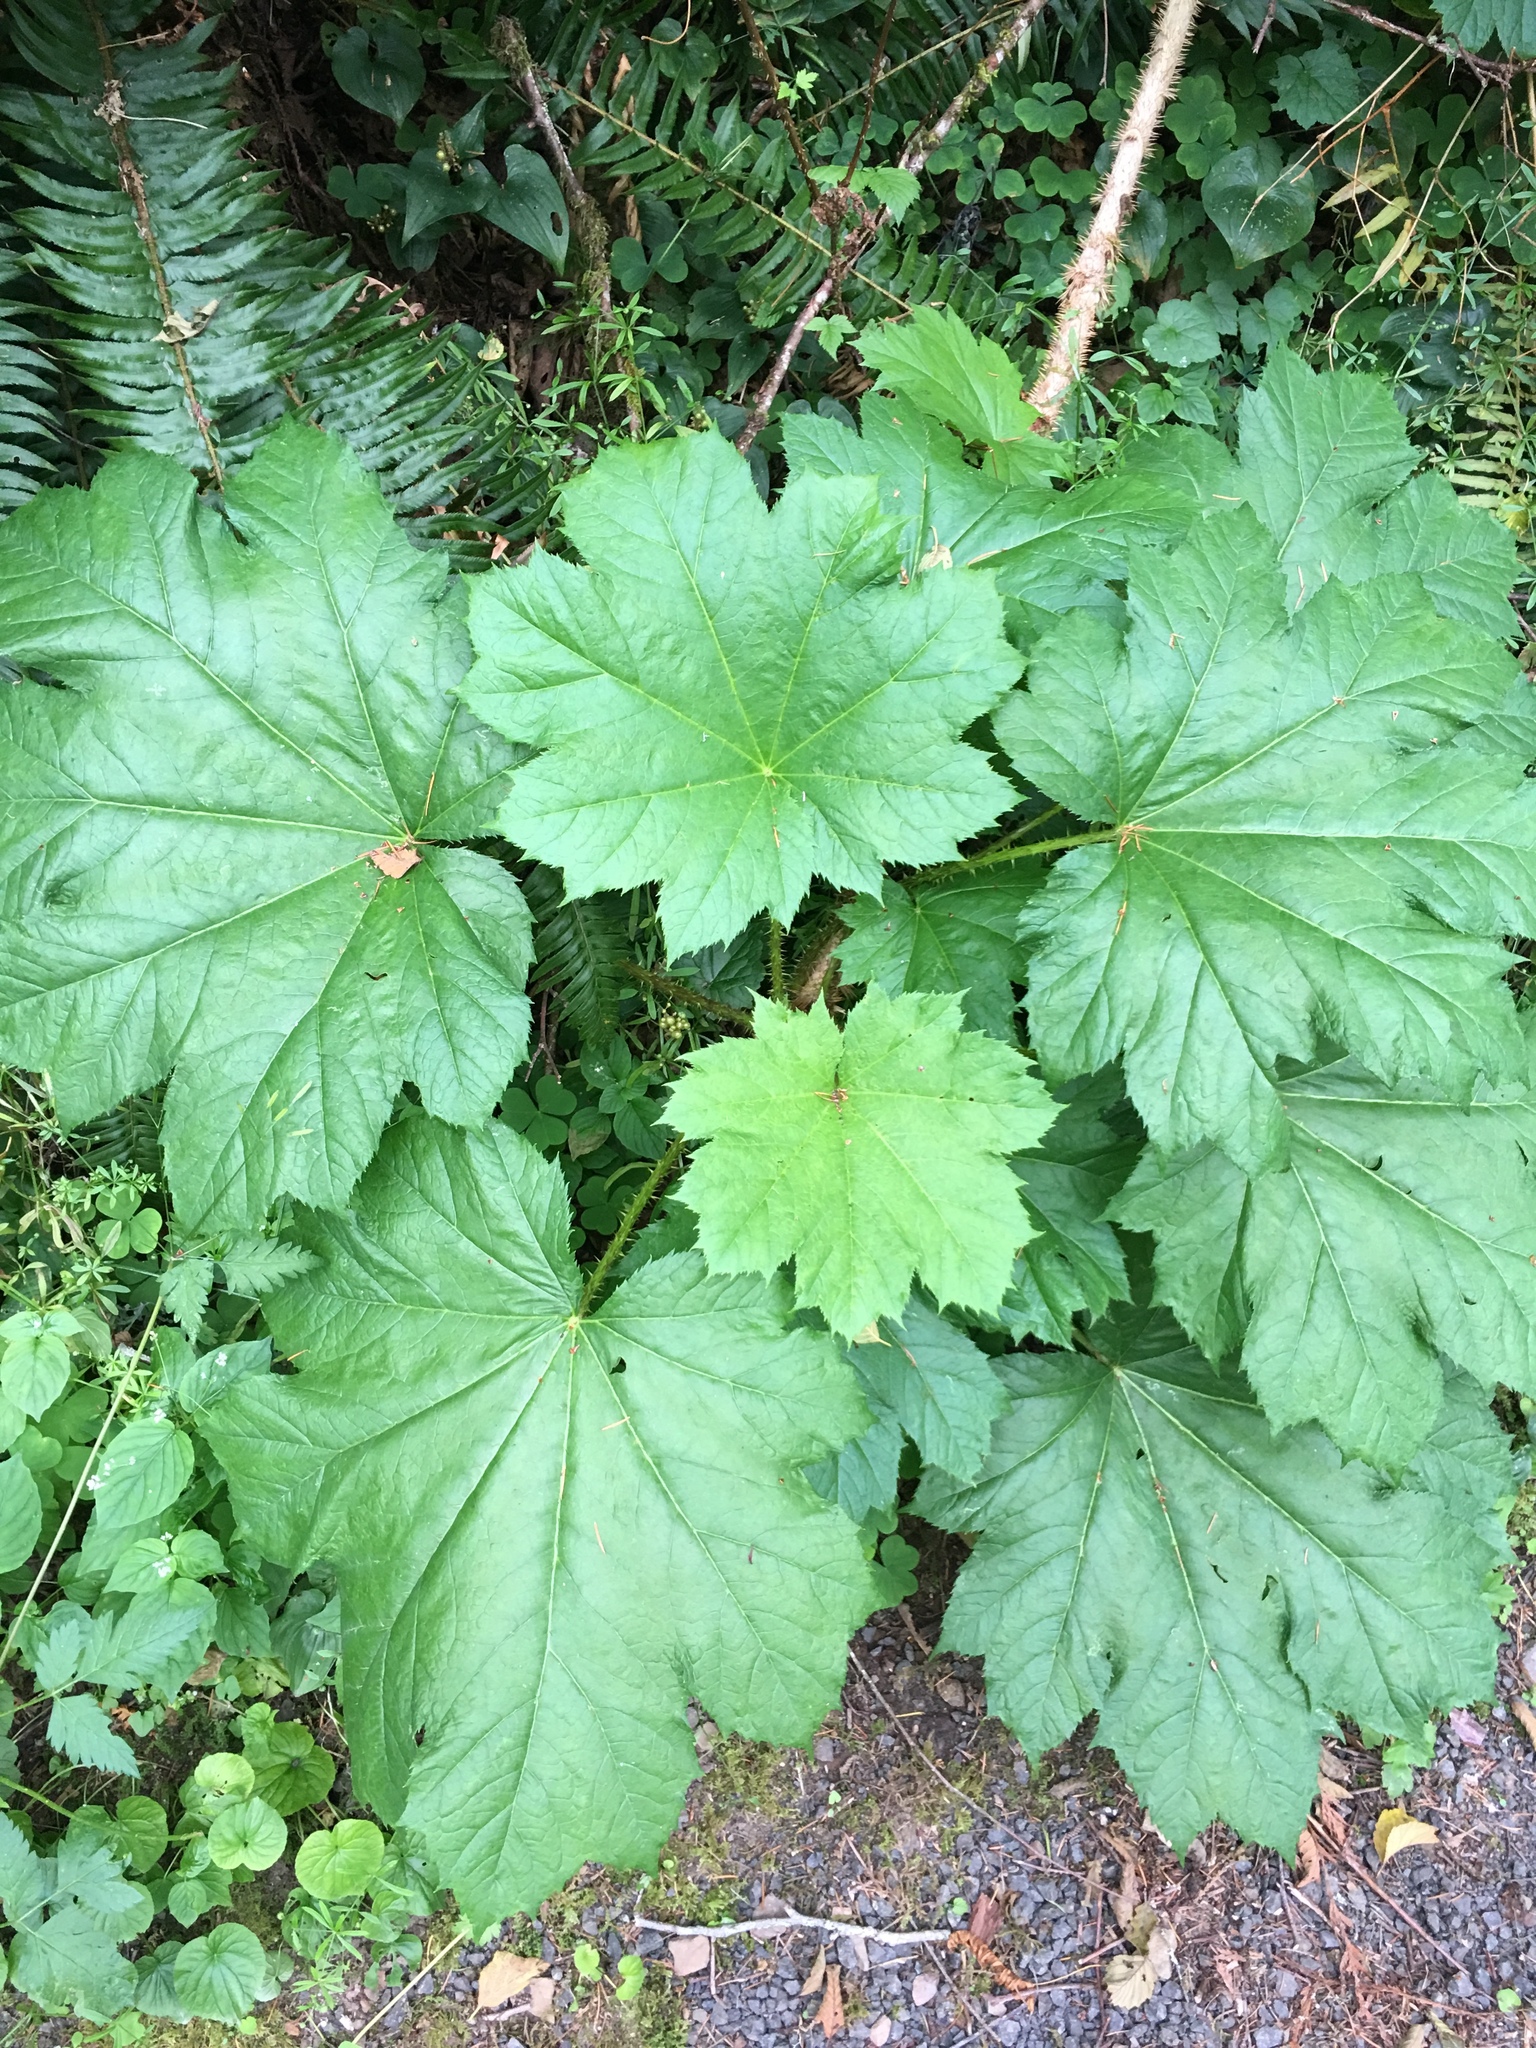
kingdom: Plantae
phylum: Tracheophyta
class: Magnoliopsida
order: Apiales
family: Araliaceae
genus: Oplopanax
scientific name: Oplopanax horridus
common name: Devil's walking-stick
